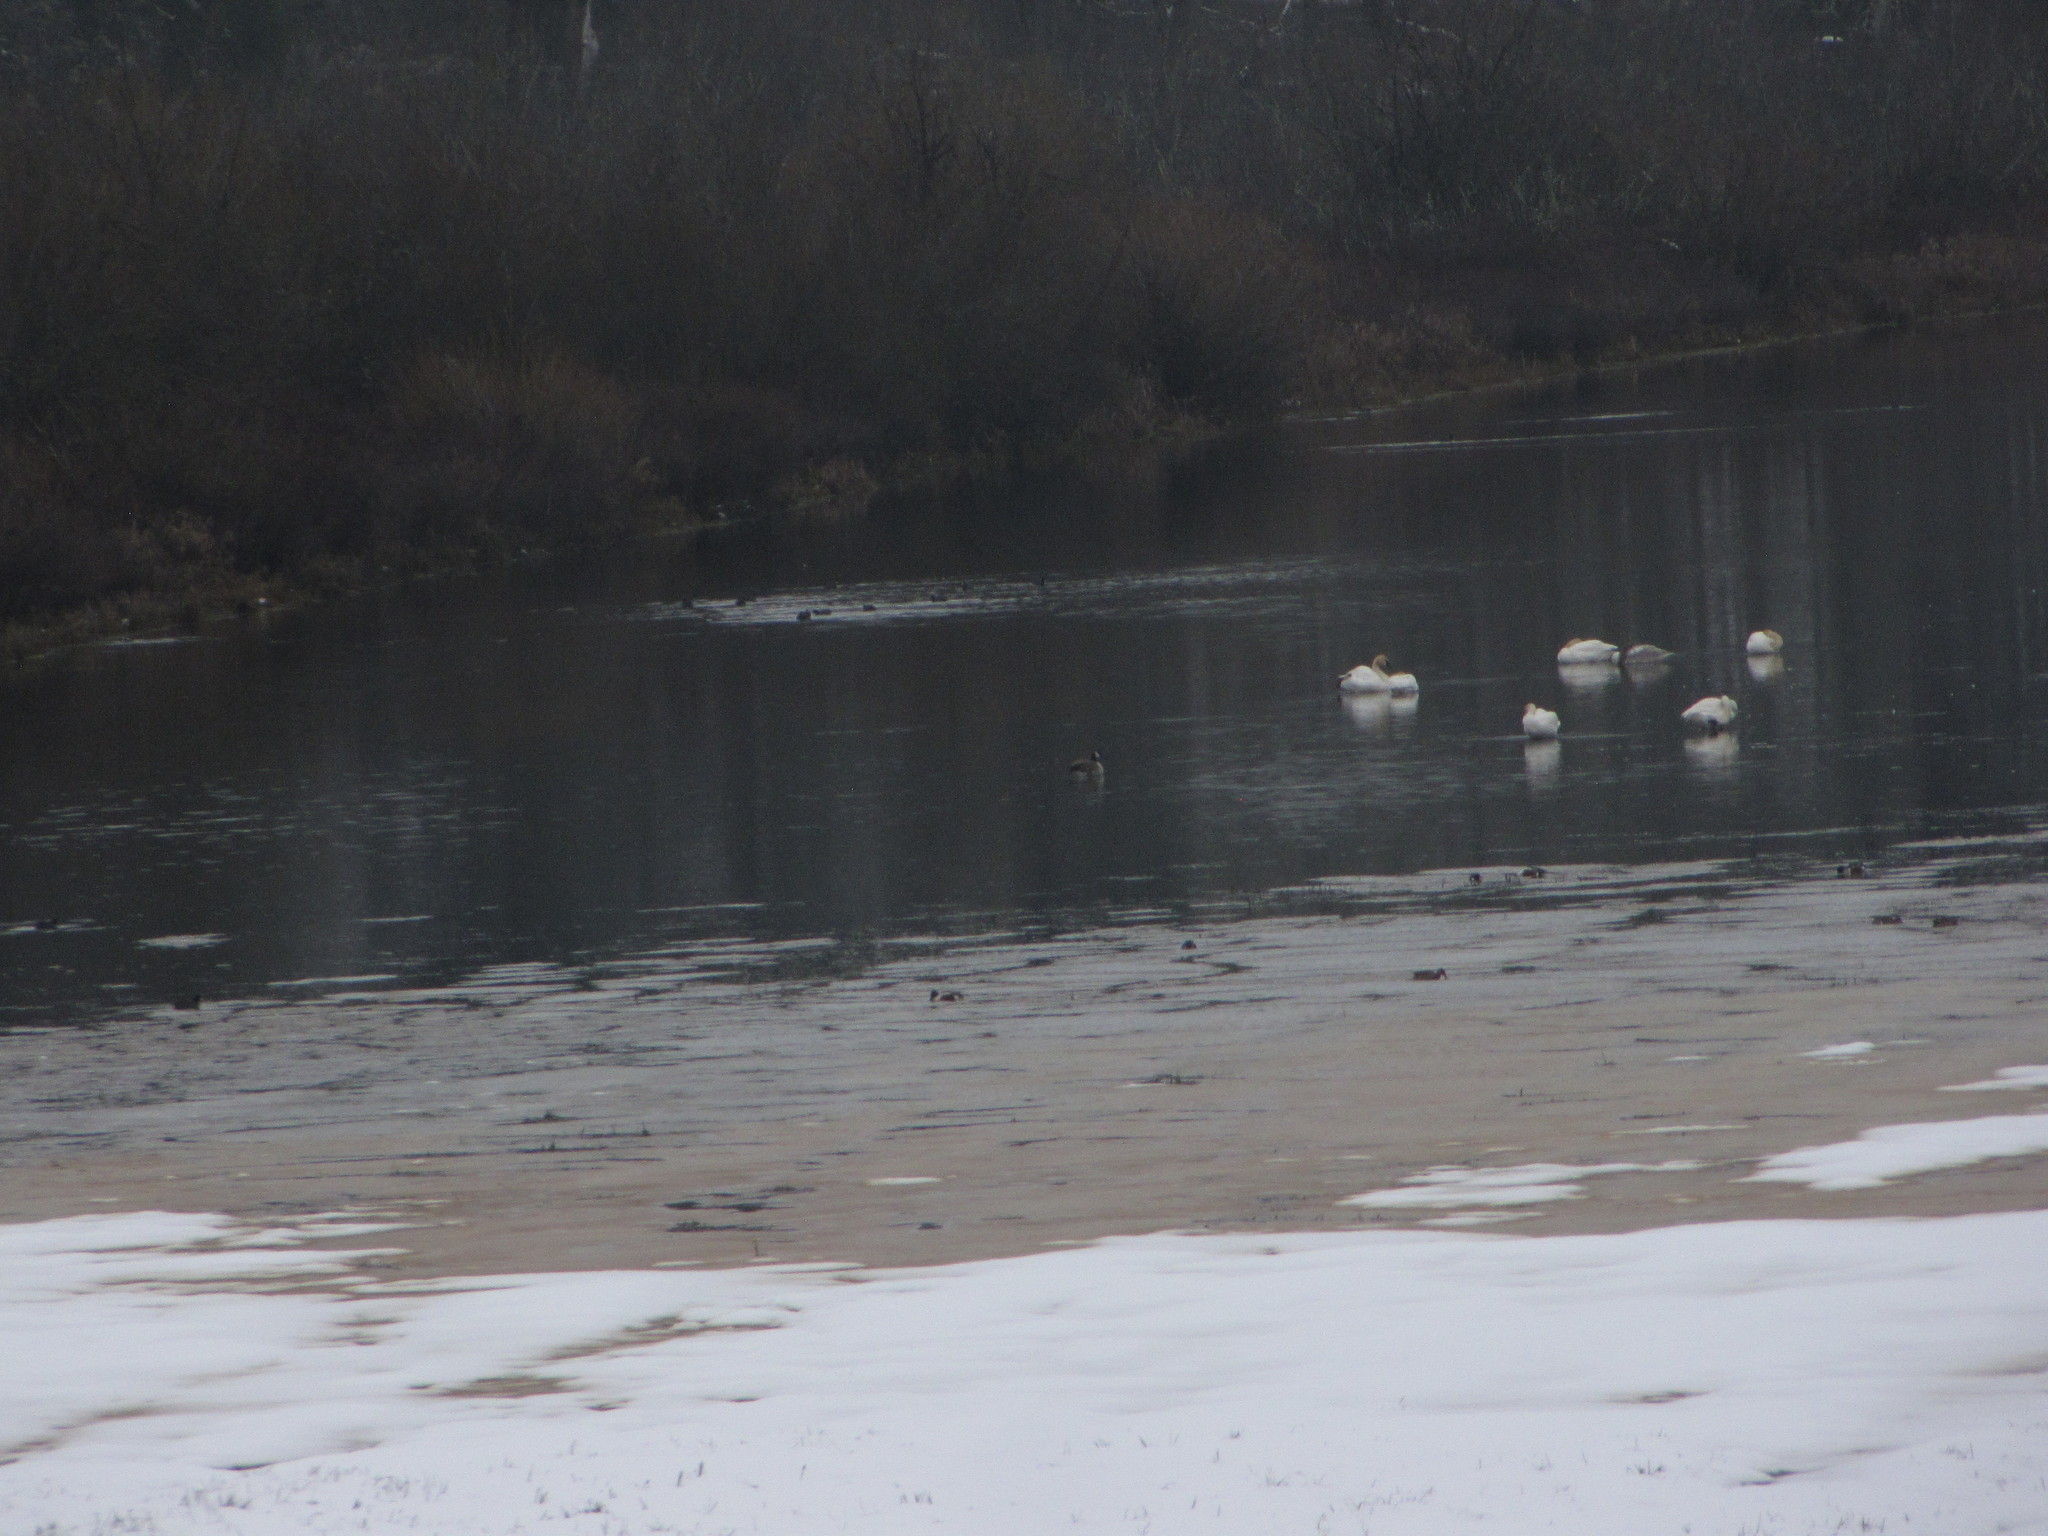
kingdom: Animalia
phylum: Chordata
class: Aves
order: Anseriformes
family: Anatidae
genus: Cygnus
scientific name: Cygnus buccinator
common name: Trumpeter swan
